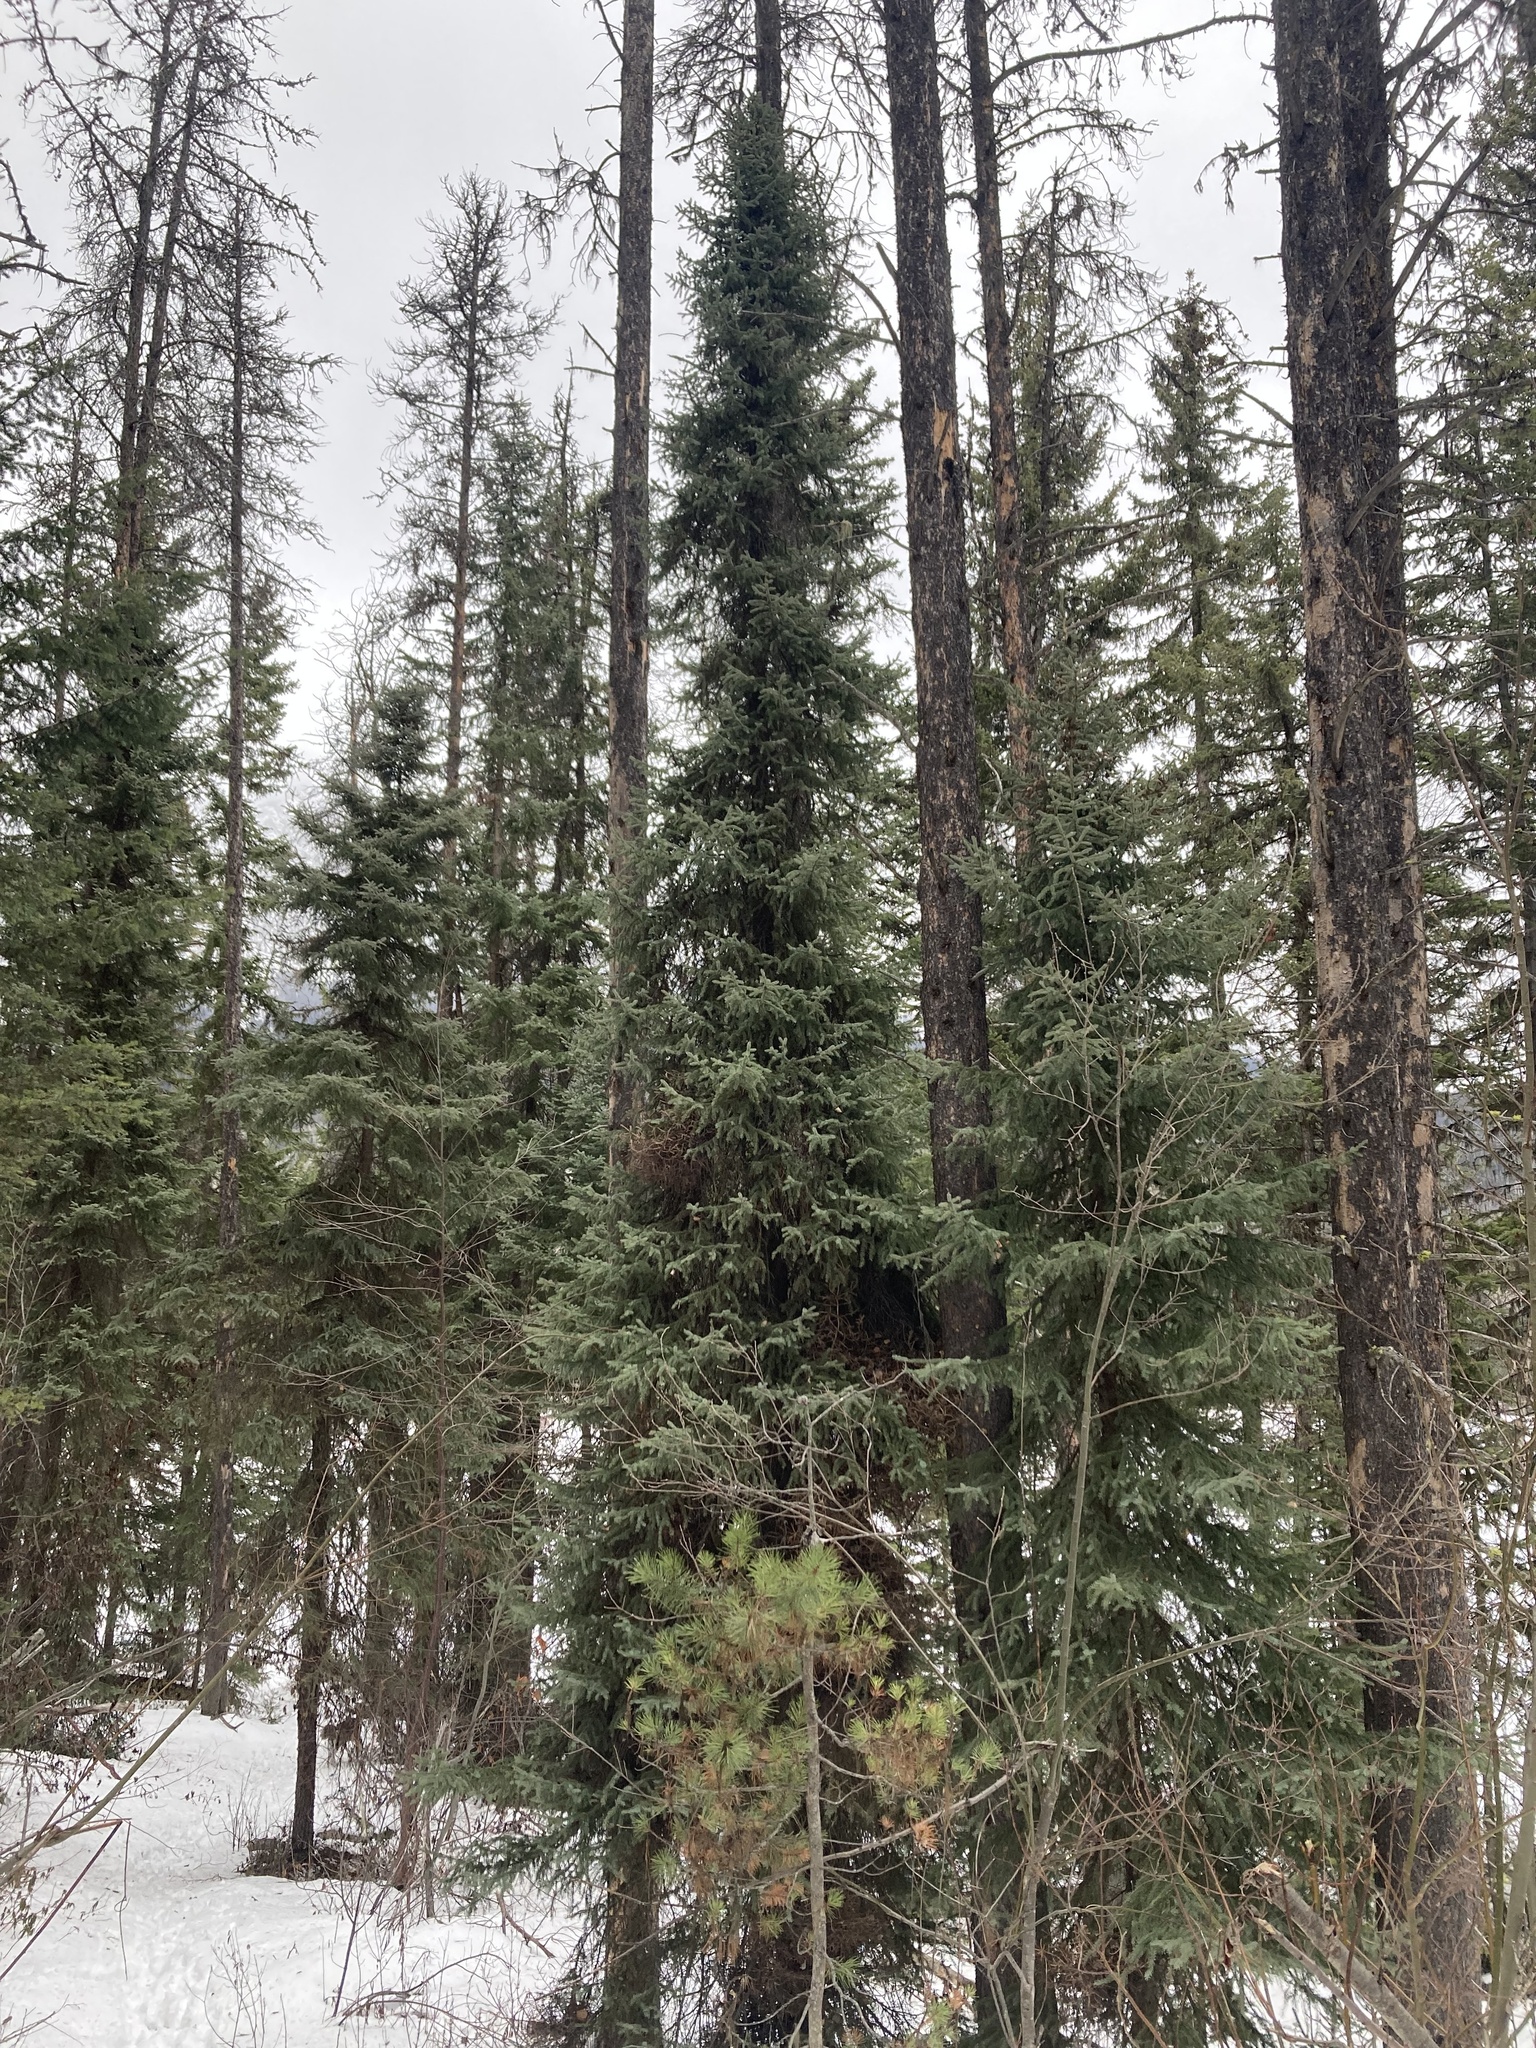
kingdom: Plantae
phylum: Tracheophyta
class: Pinopsida
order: Pinales
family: Pinaceae
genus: Picea
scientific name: Picea mariana
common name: Black spruce
